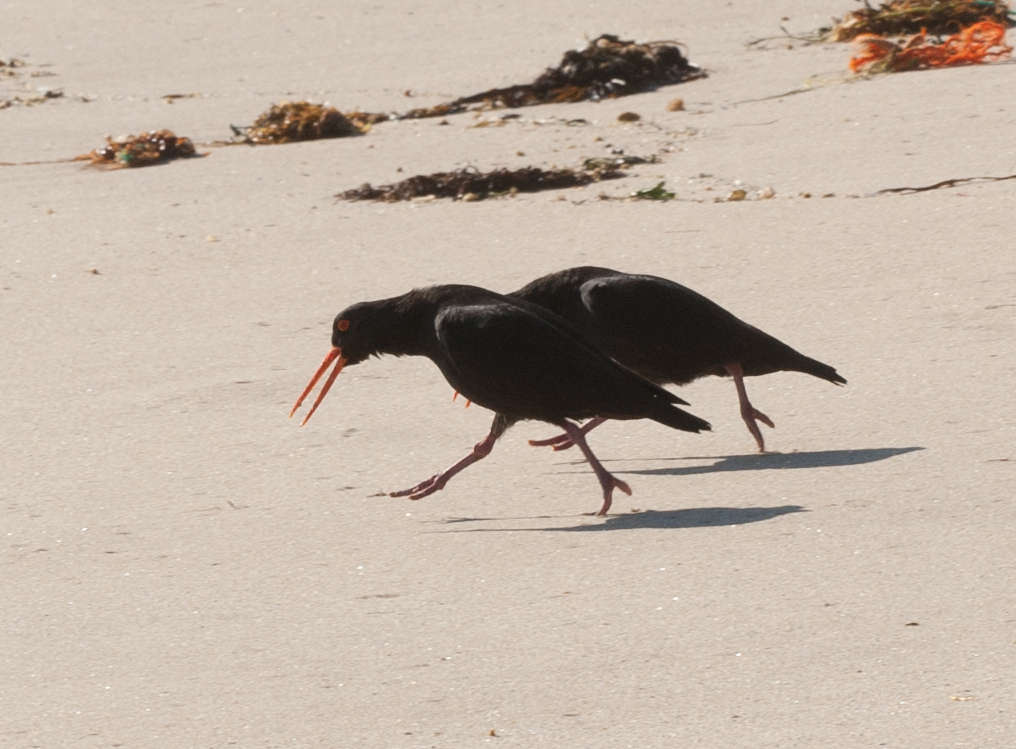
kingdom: Animalia
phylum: Chordata
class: Aves
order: Charadriiformes
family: Haematopodidae
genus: Haematopus
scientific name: Haematopus fuliginosus
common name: Sooty oystercatcher
